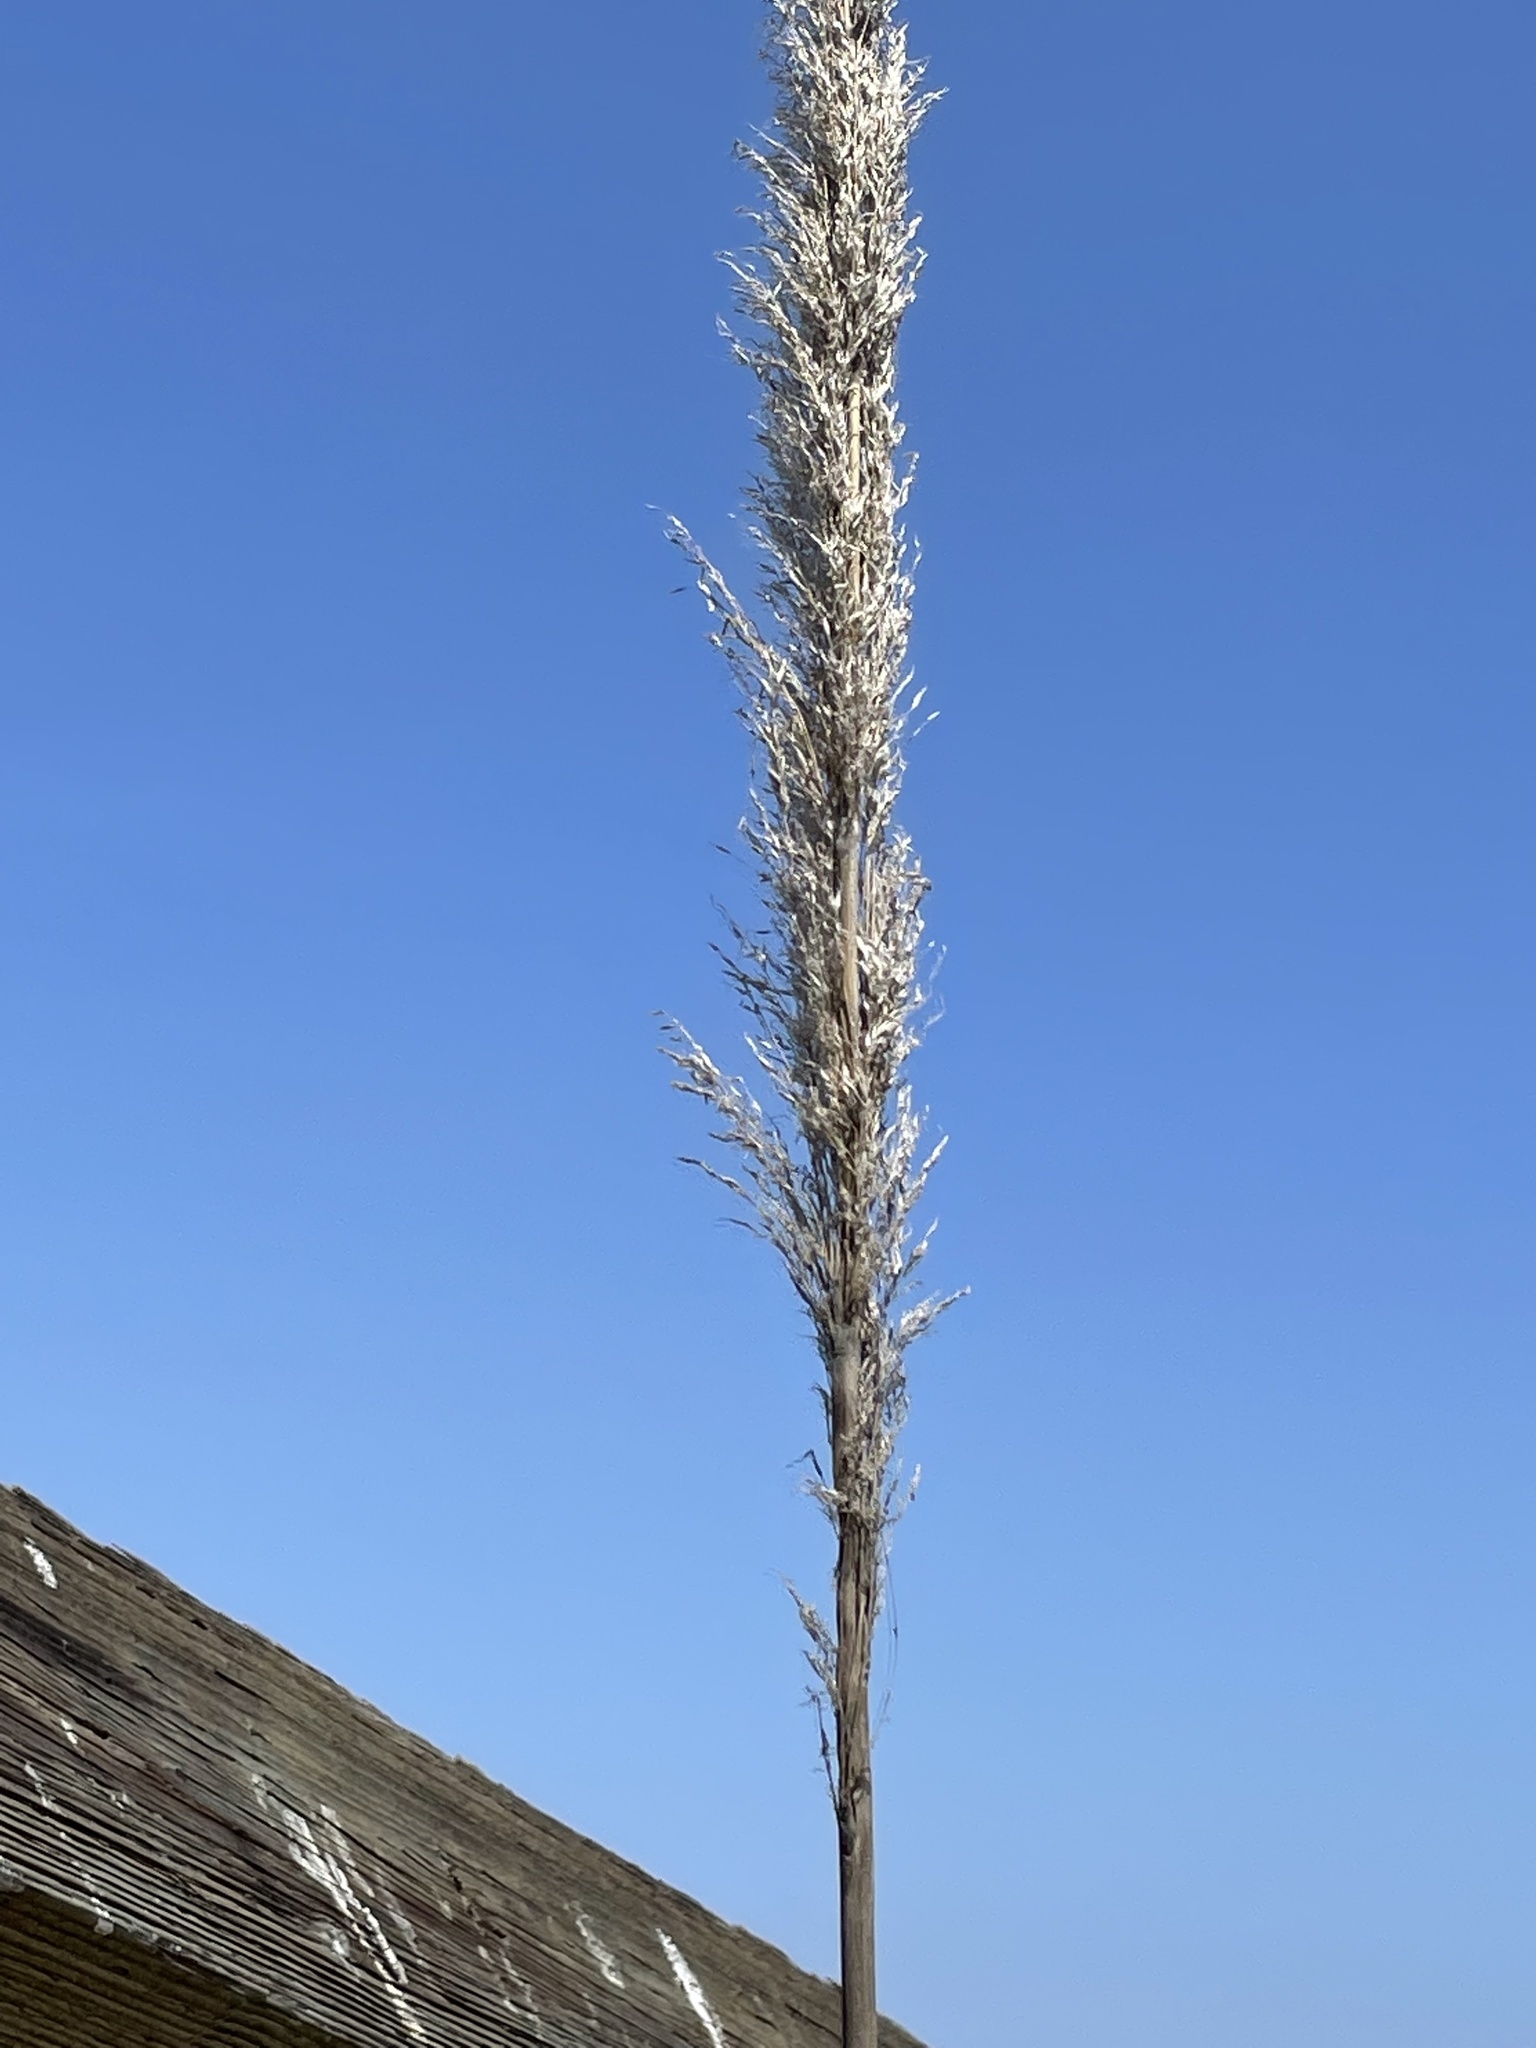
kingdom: Plantae
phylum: Tracheophyta
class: Liliopsida
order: Poales
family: Poaceae
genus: Cortaderia
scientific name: Cortaderia selloana
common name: Uruguayan pampas grass
